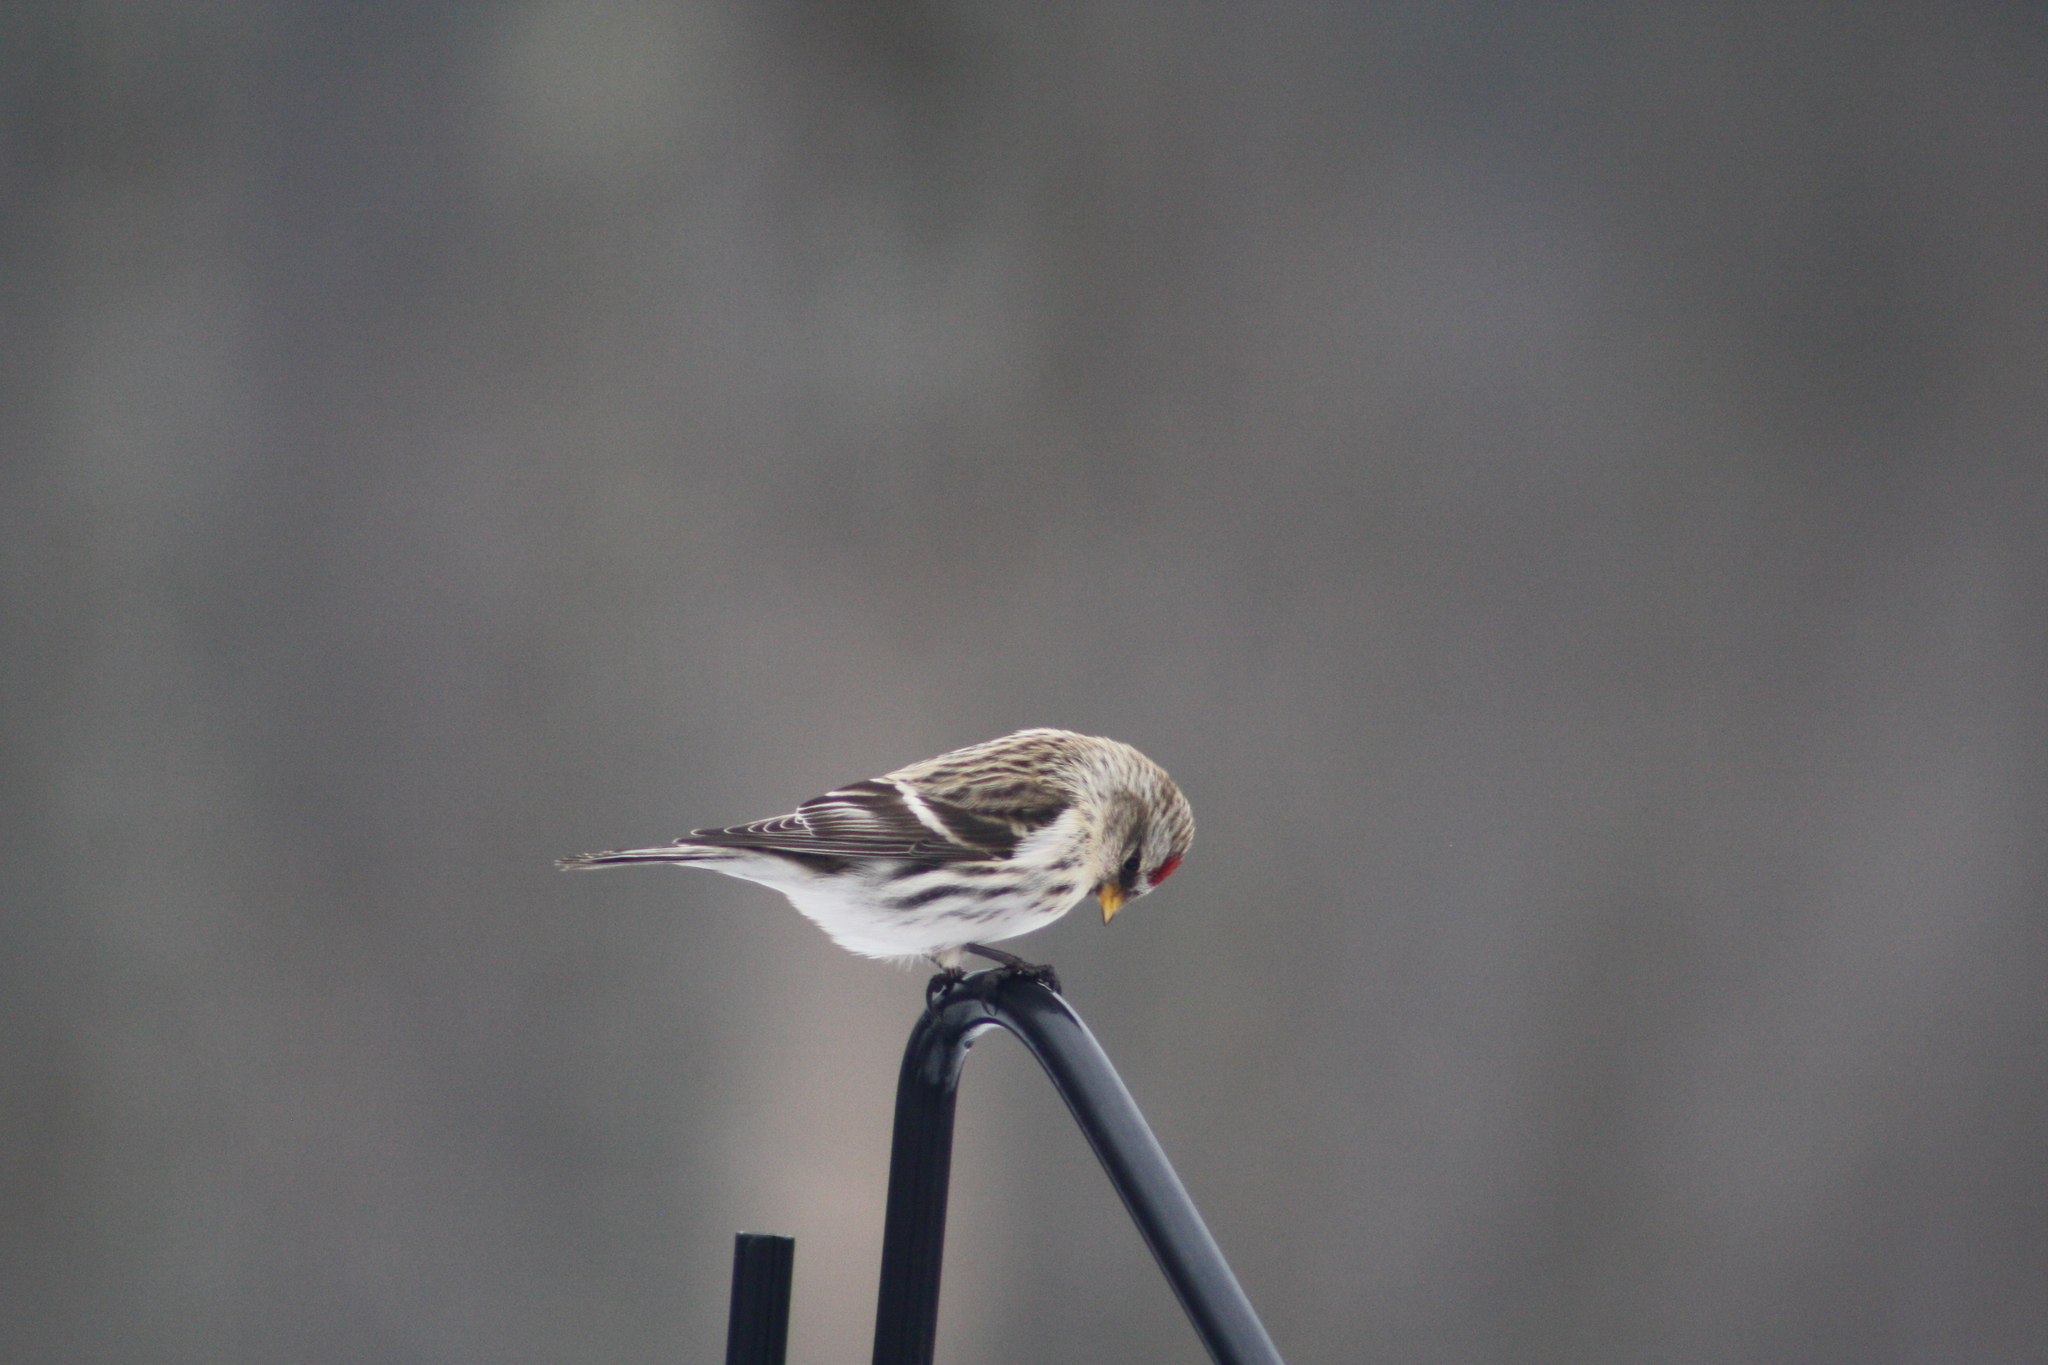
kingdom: Animalia
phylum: Chordata
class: Aves
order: Passeriformes
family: Fringillidae
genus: Acanthis
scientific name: Acanthis flammea
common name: Common redpoll
